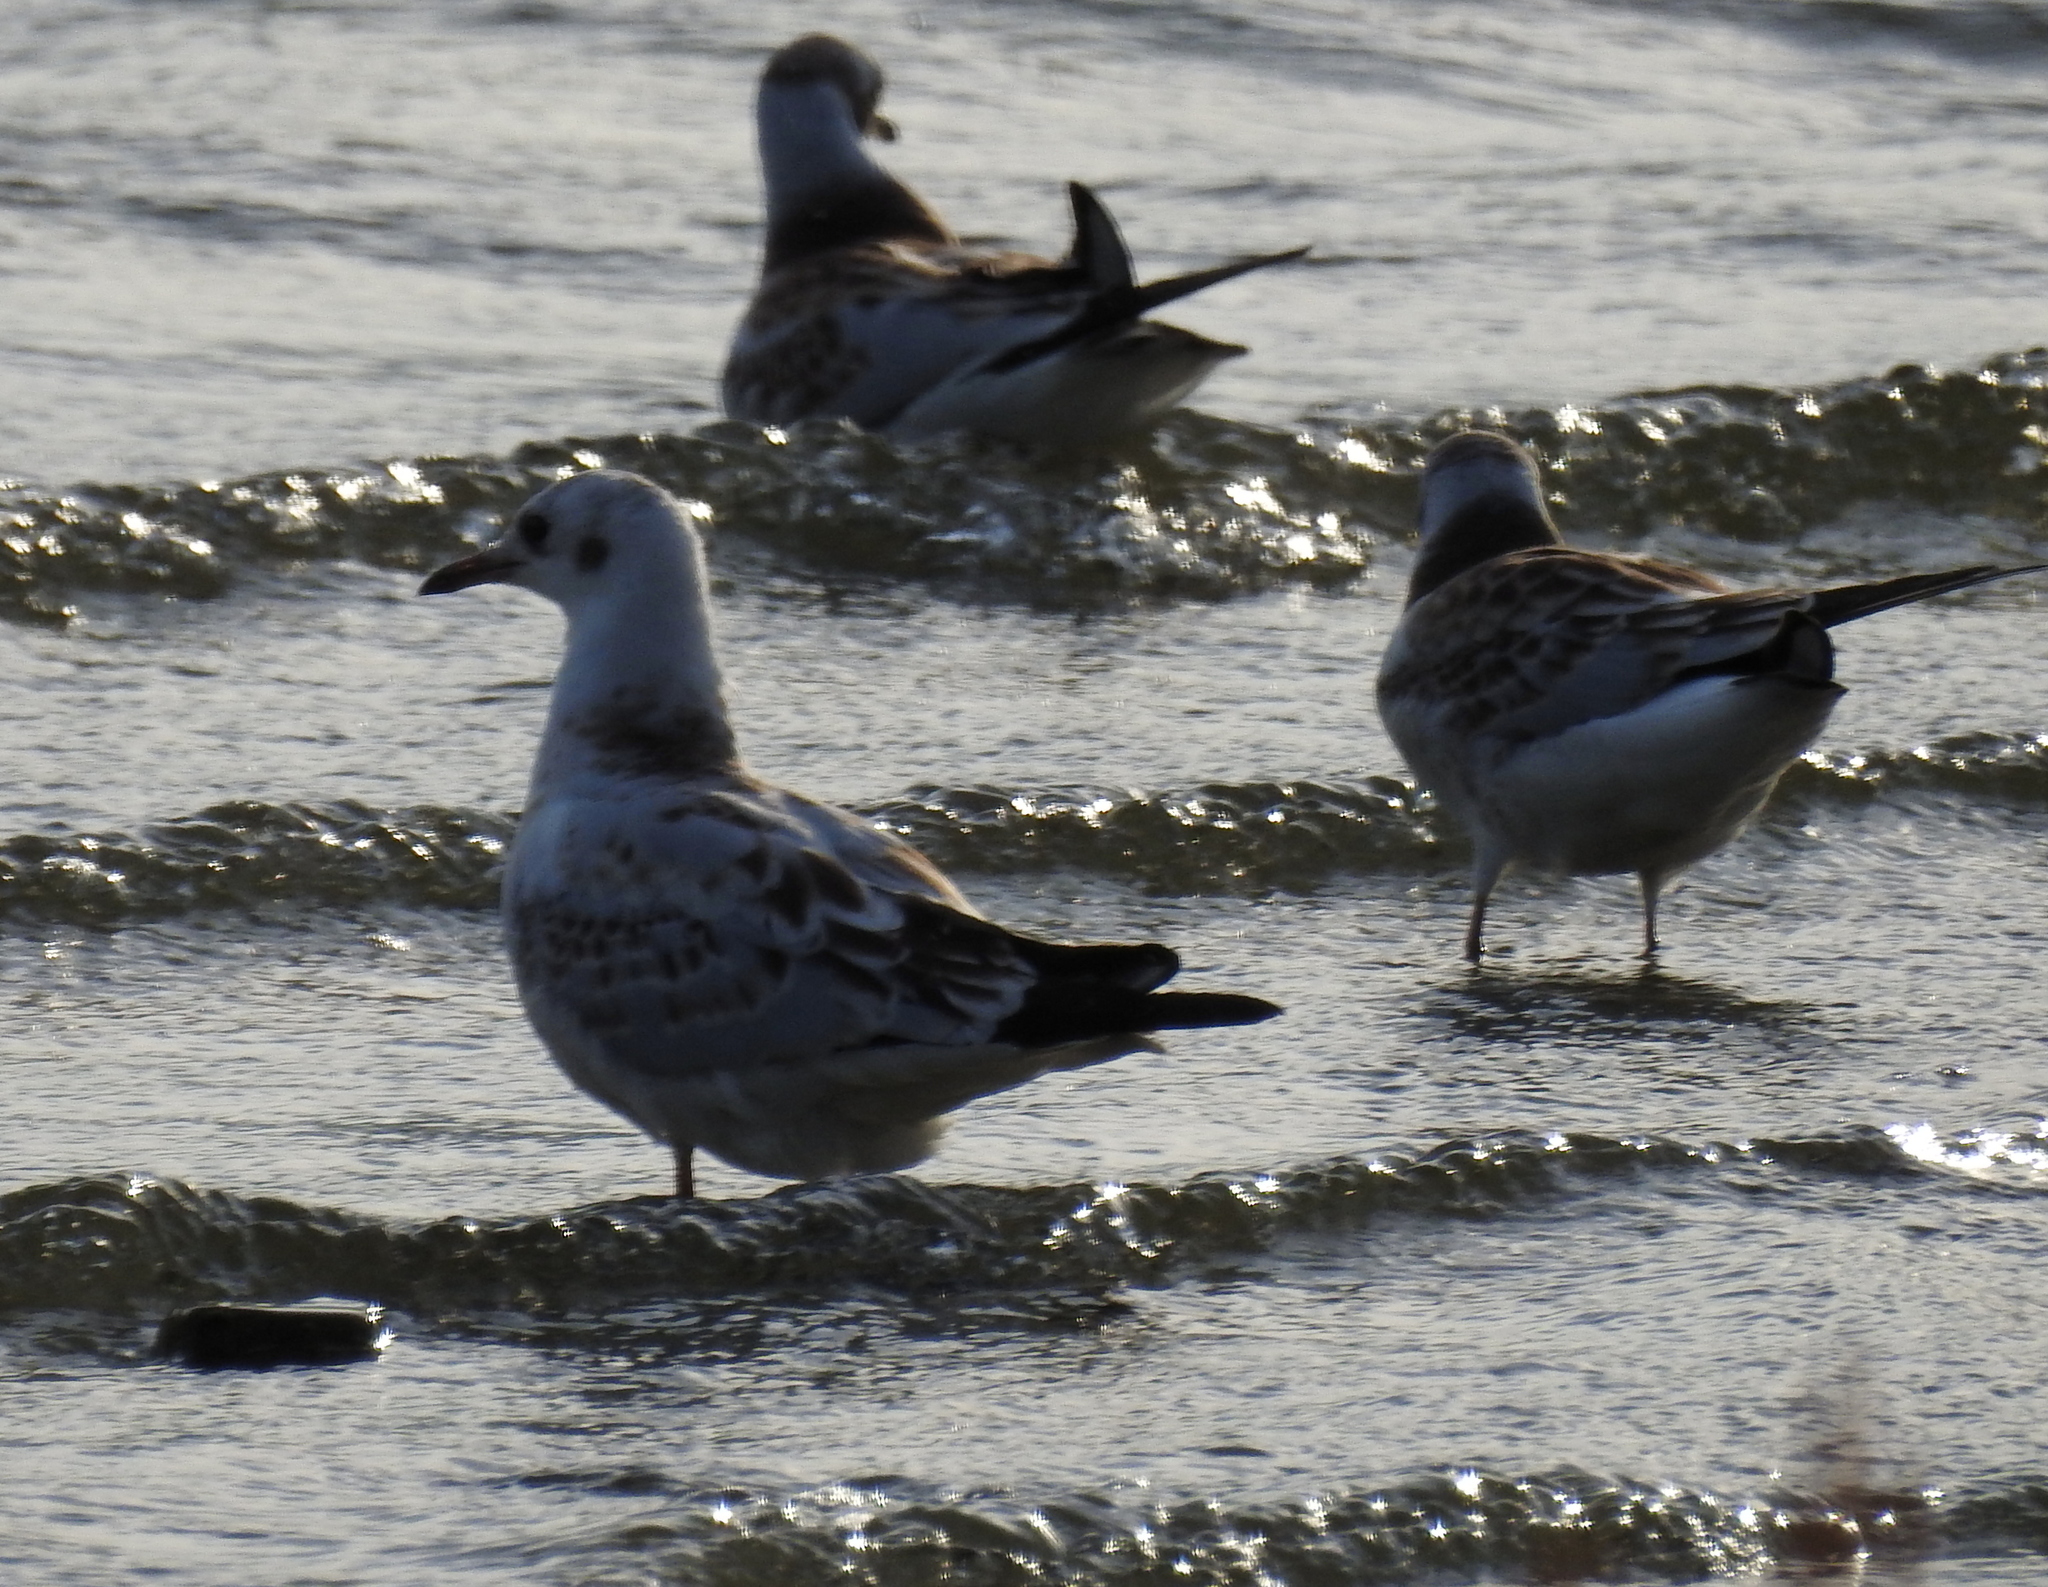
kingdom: Animalia
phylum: Chordata
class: Aves
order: Charadriiformes
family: Laridae
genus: Chroicocephalus
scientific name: Chroicocephalus ridibundus
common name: Black-headed gull
